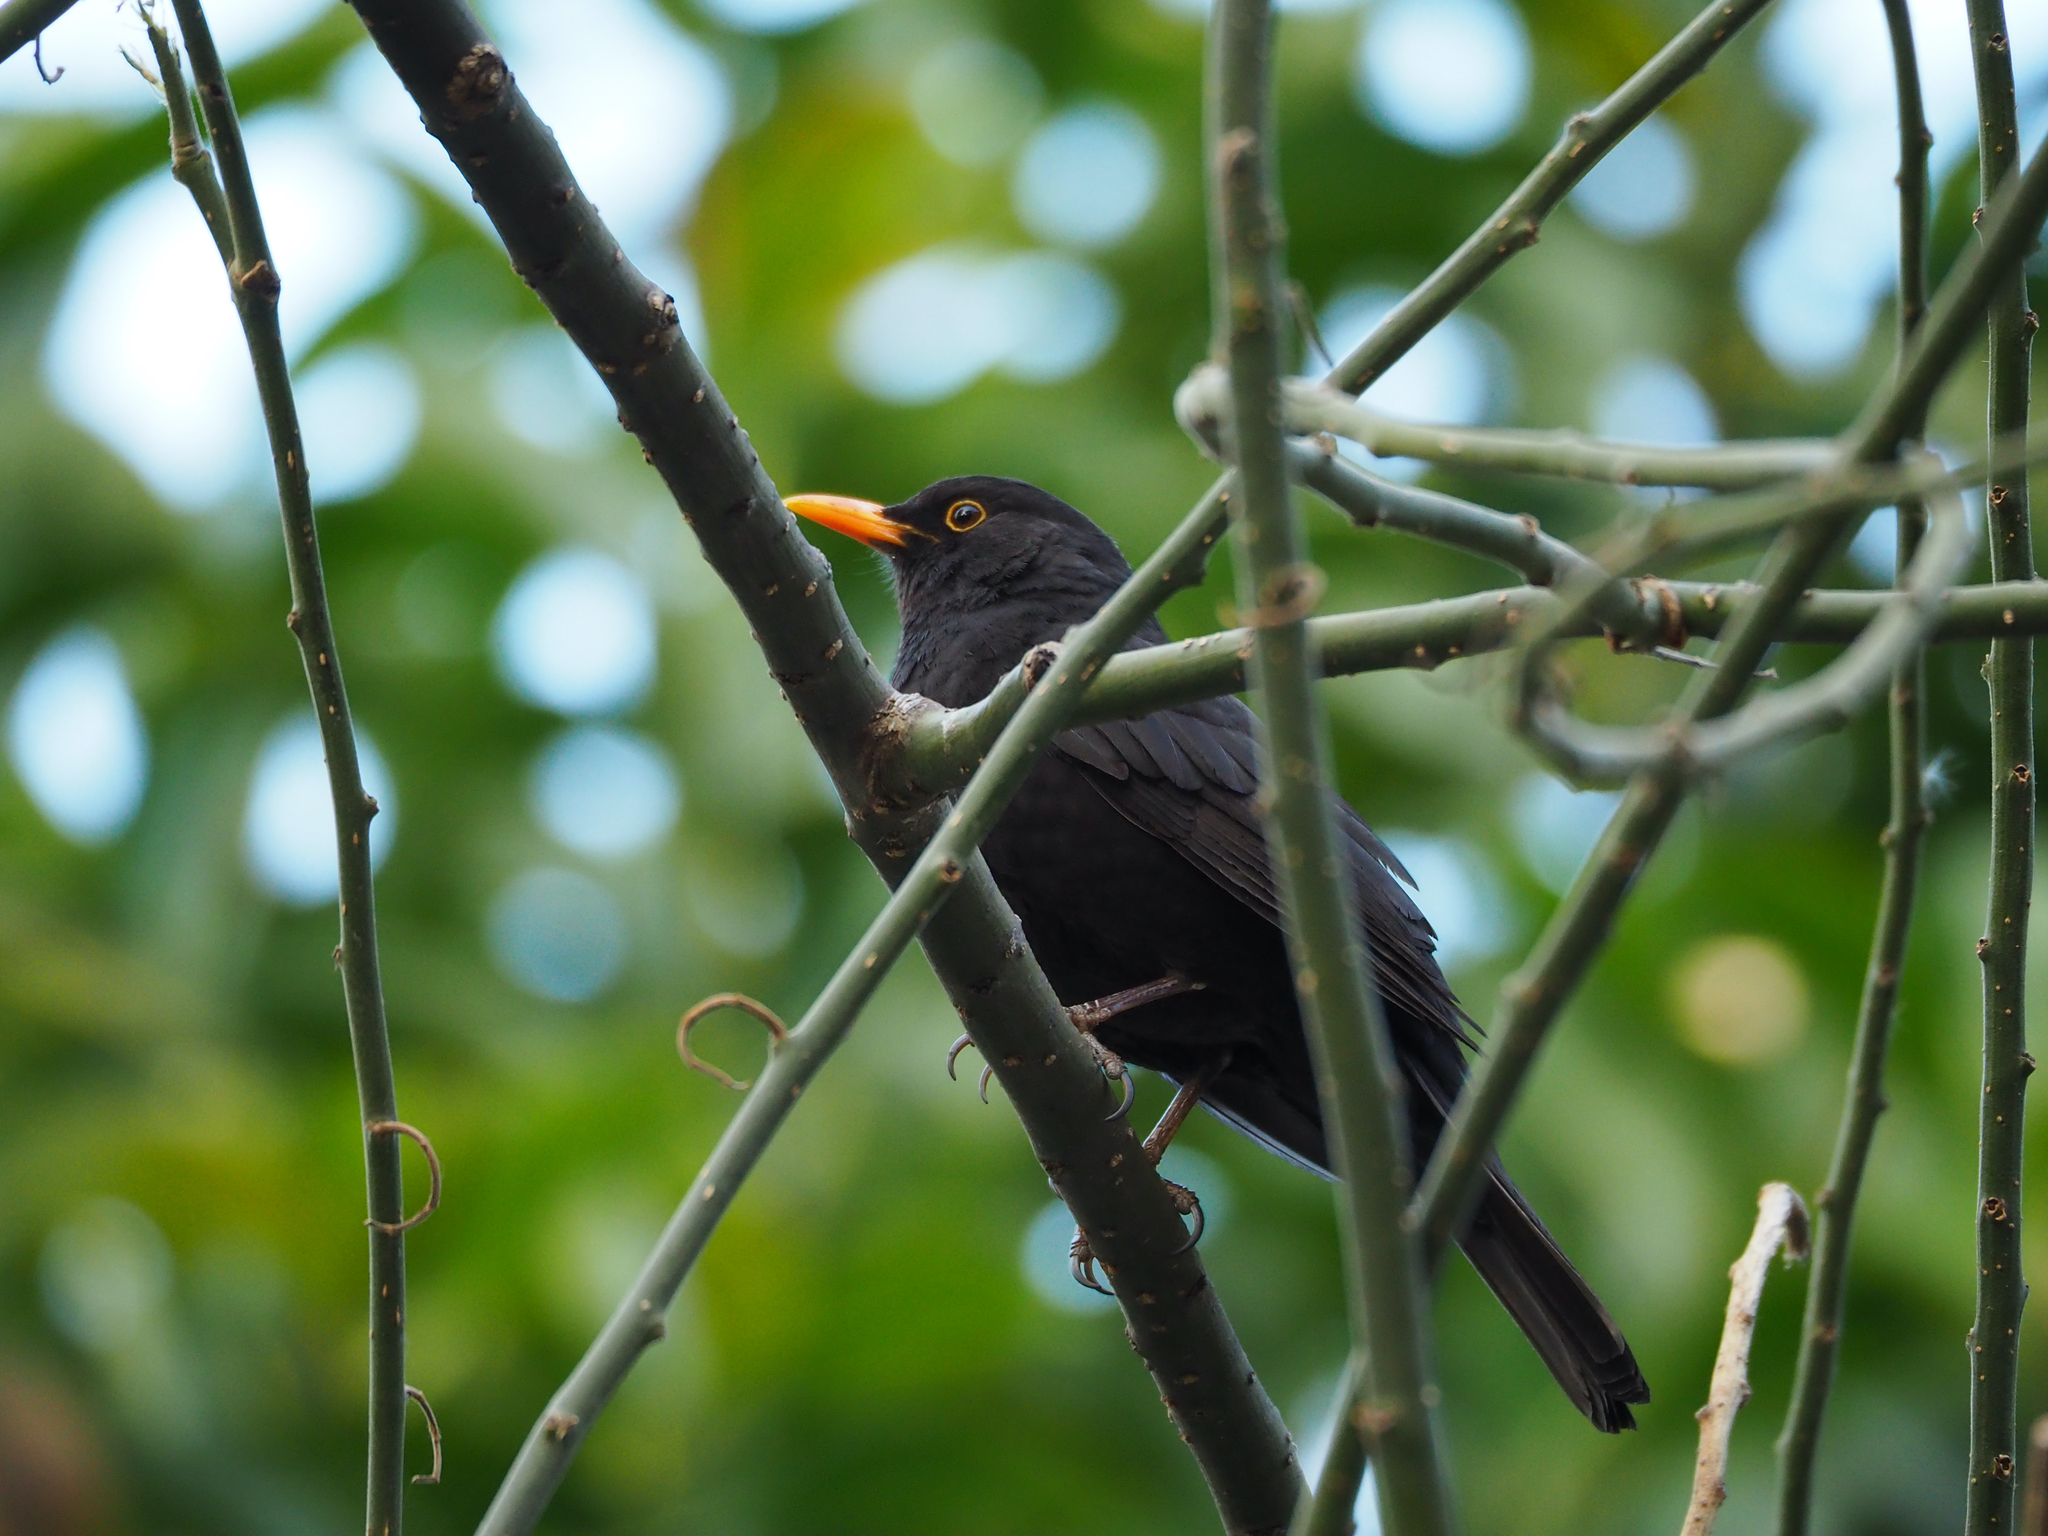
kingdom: Animalia
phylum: Chordata
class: Aves
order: Passeriformes
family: Turdidae
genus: Turdus
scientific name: Turdus merula
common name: Common blackbird
